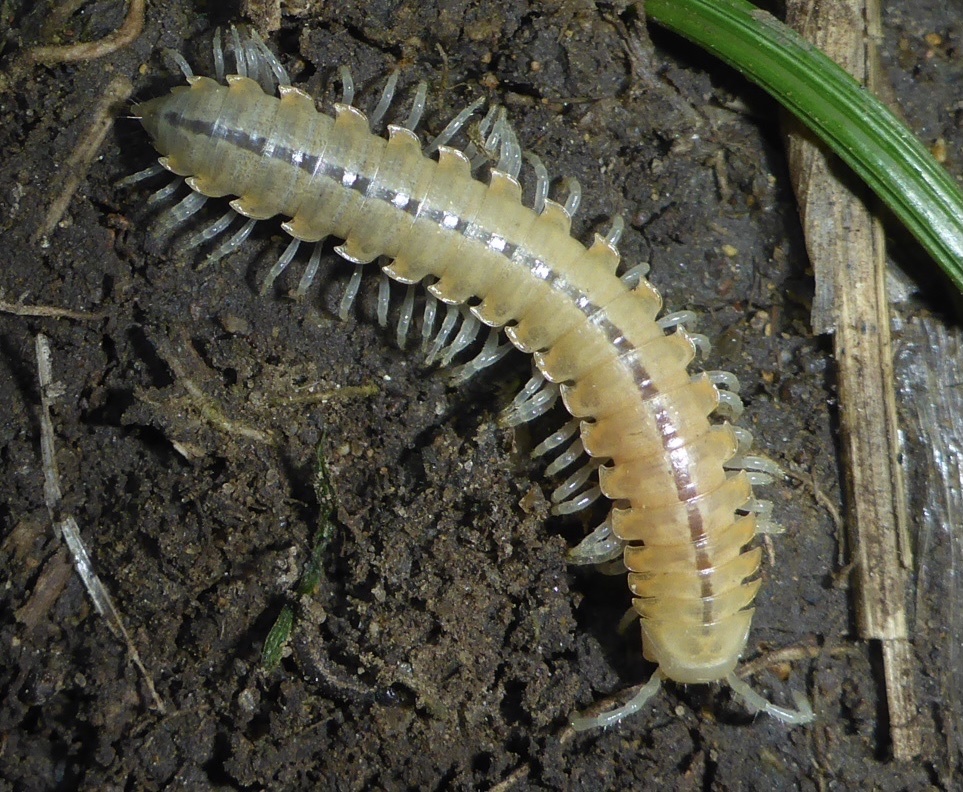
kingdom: Animalia
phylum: Arthropoda
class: Diplopoda
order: Polydesmida
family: Xystodesmidae
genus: Xystocheir
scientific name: Xystocheir dissecta
